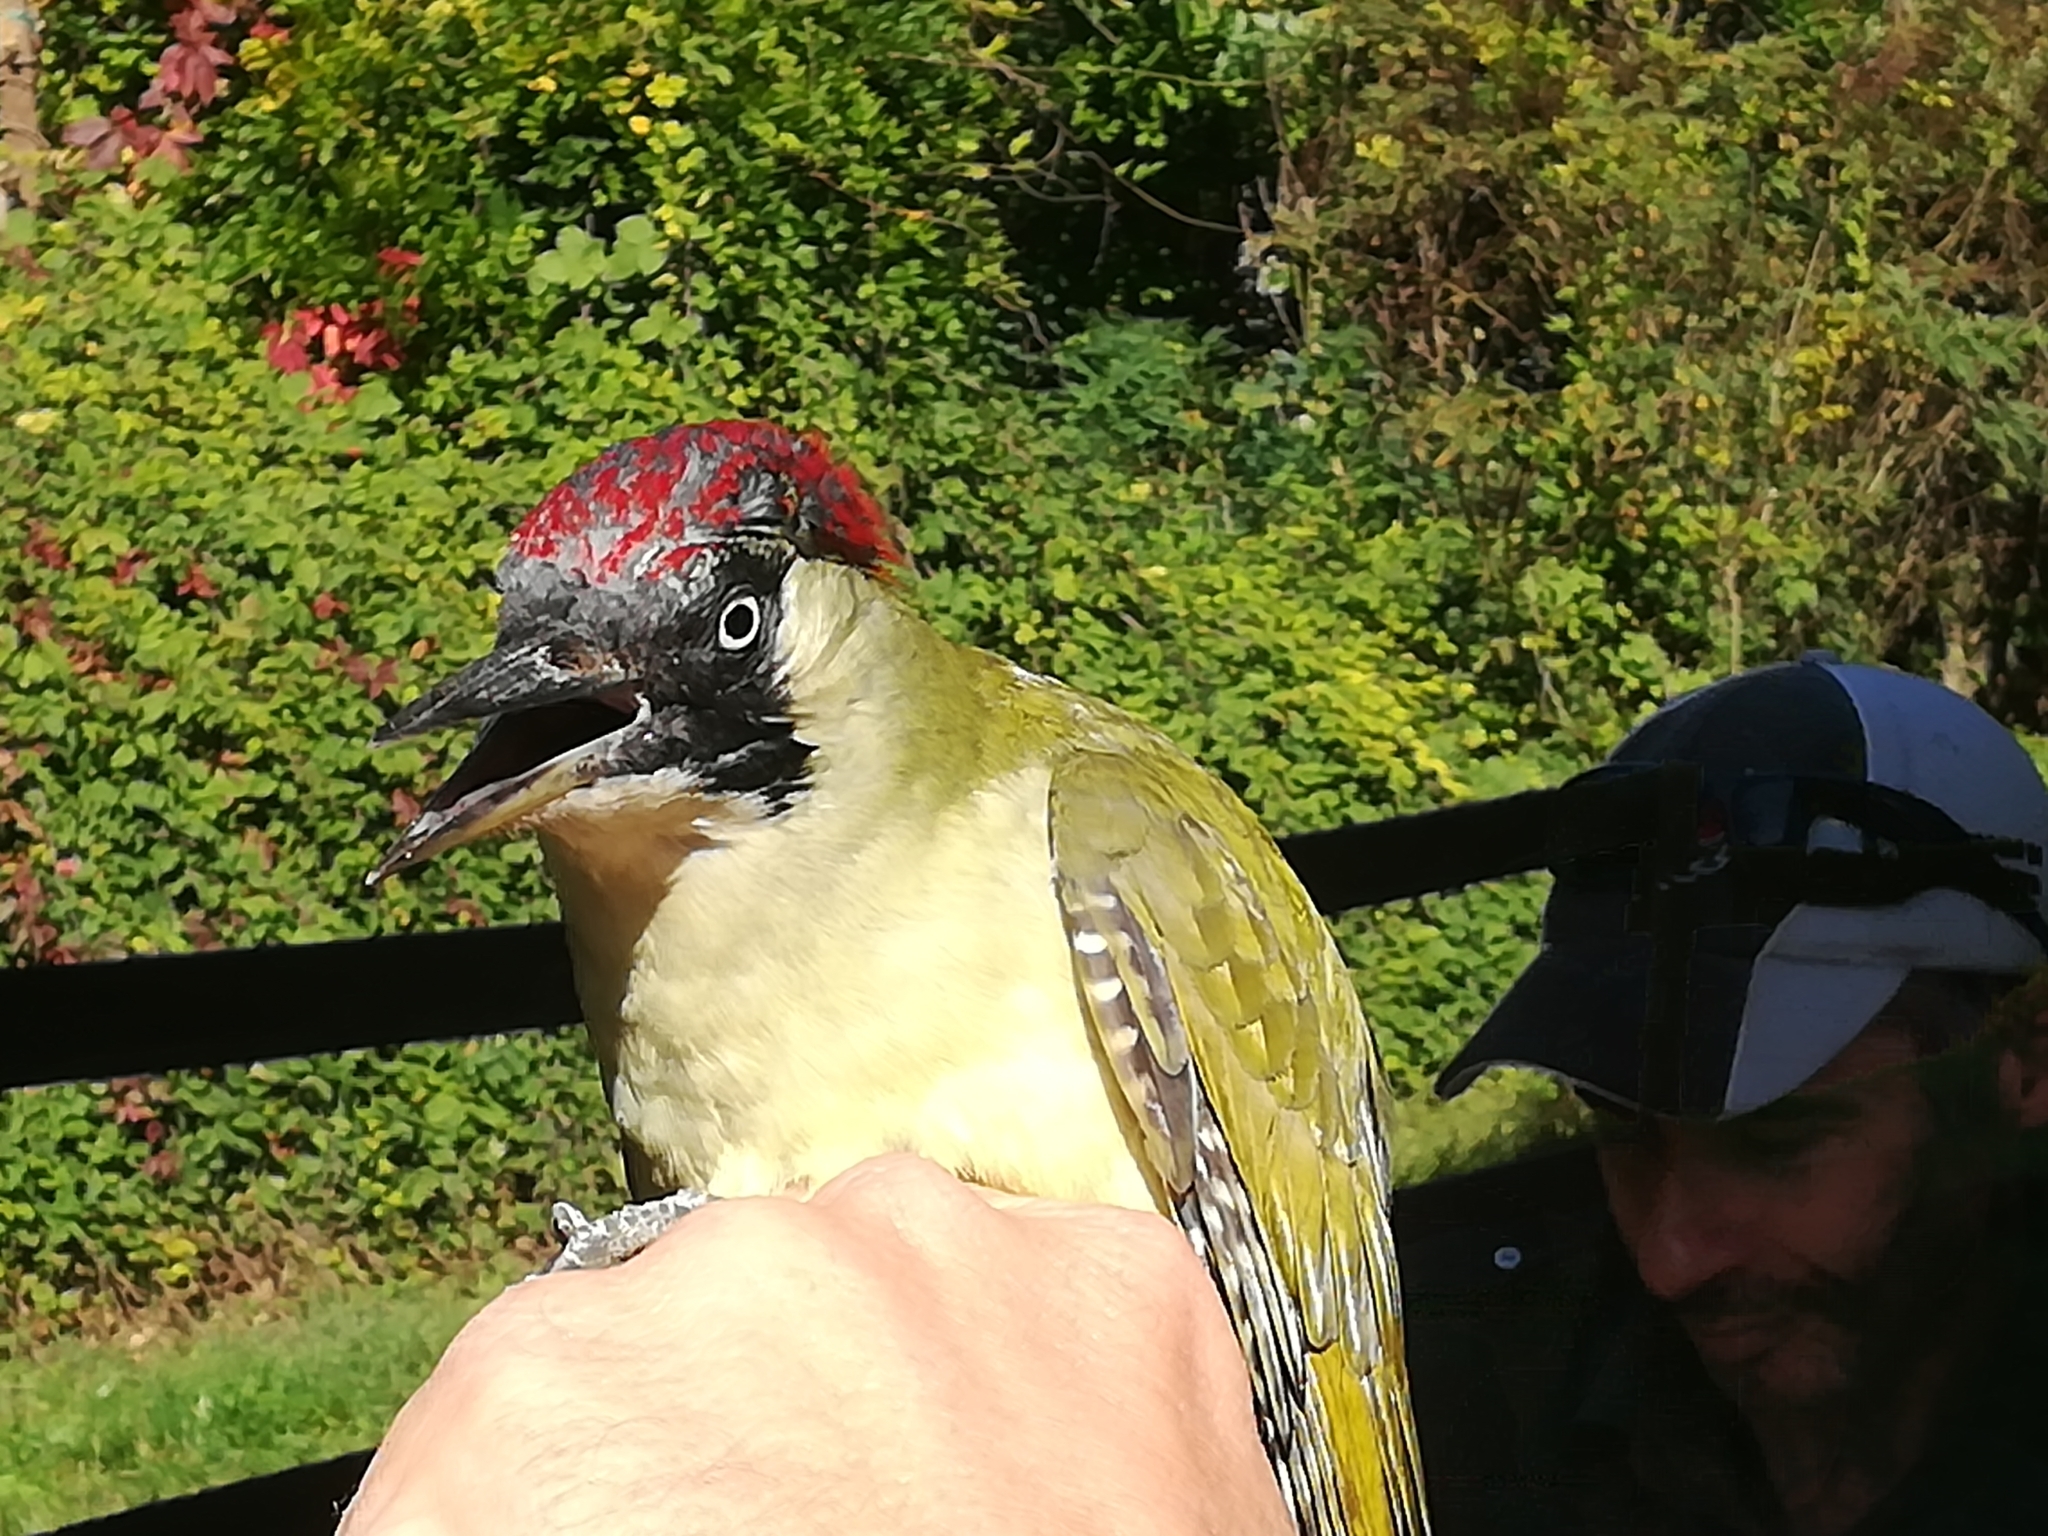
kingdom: Animalia
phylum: Chordata
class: Aves
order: Piciformes
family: Picidae
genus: Picus
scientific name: Picus viridis
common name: European green woodpecker
